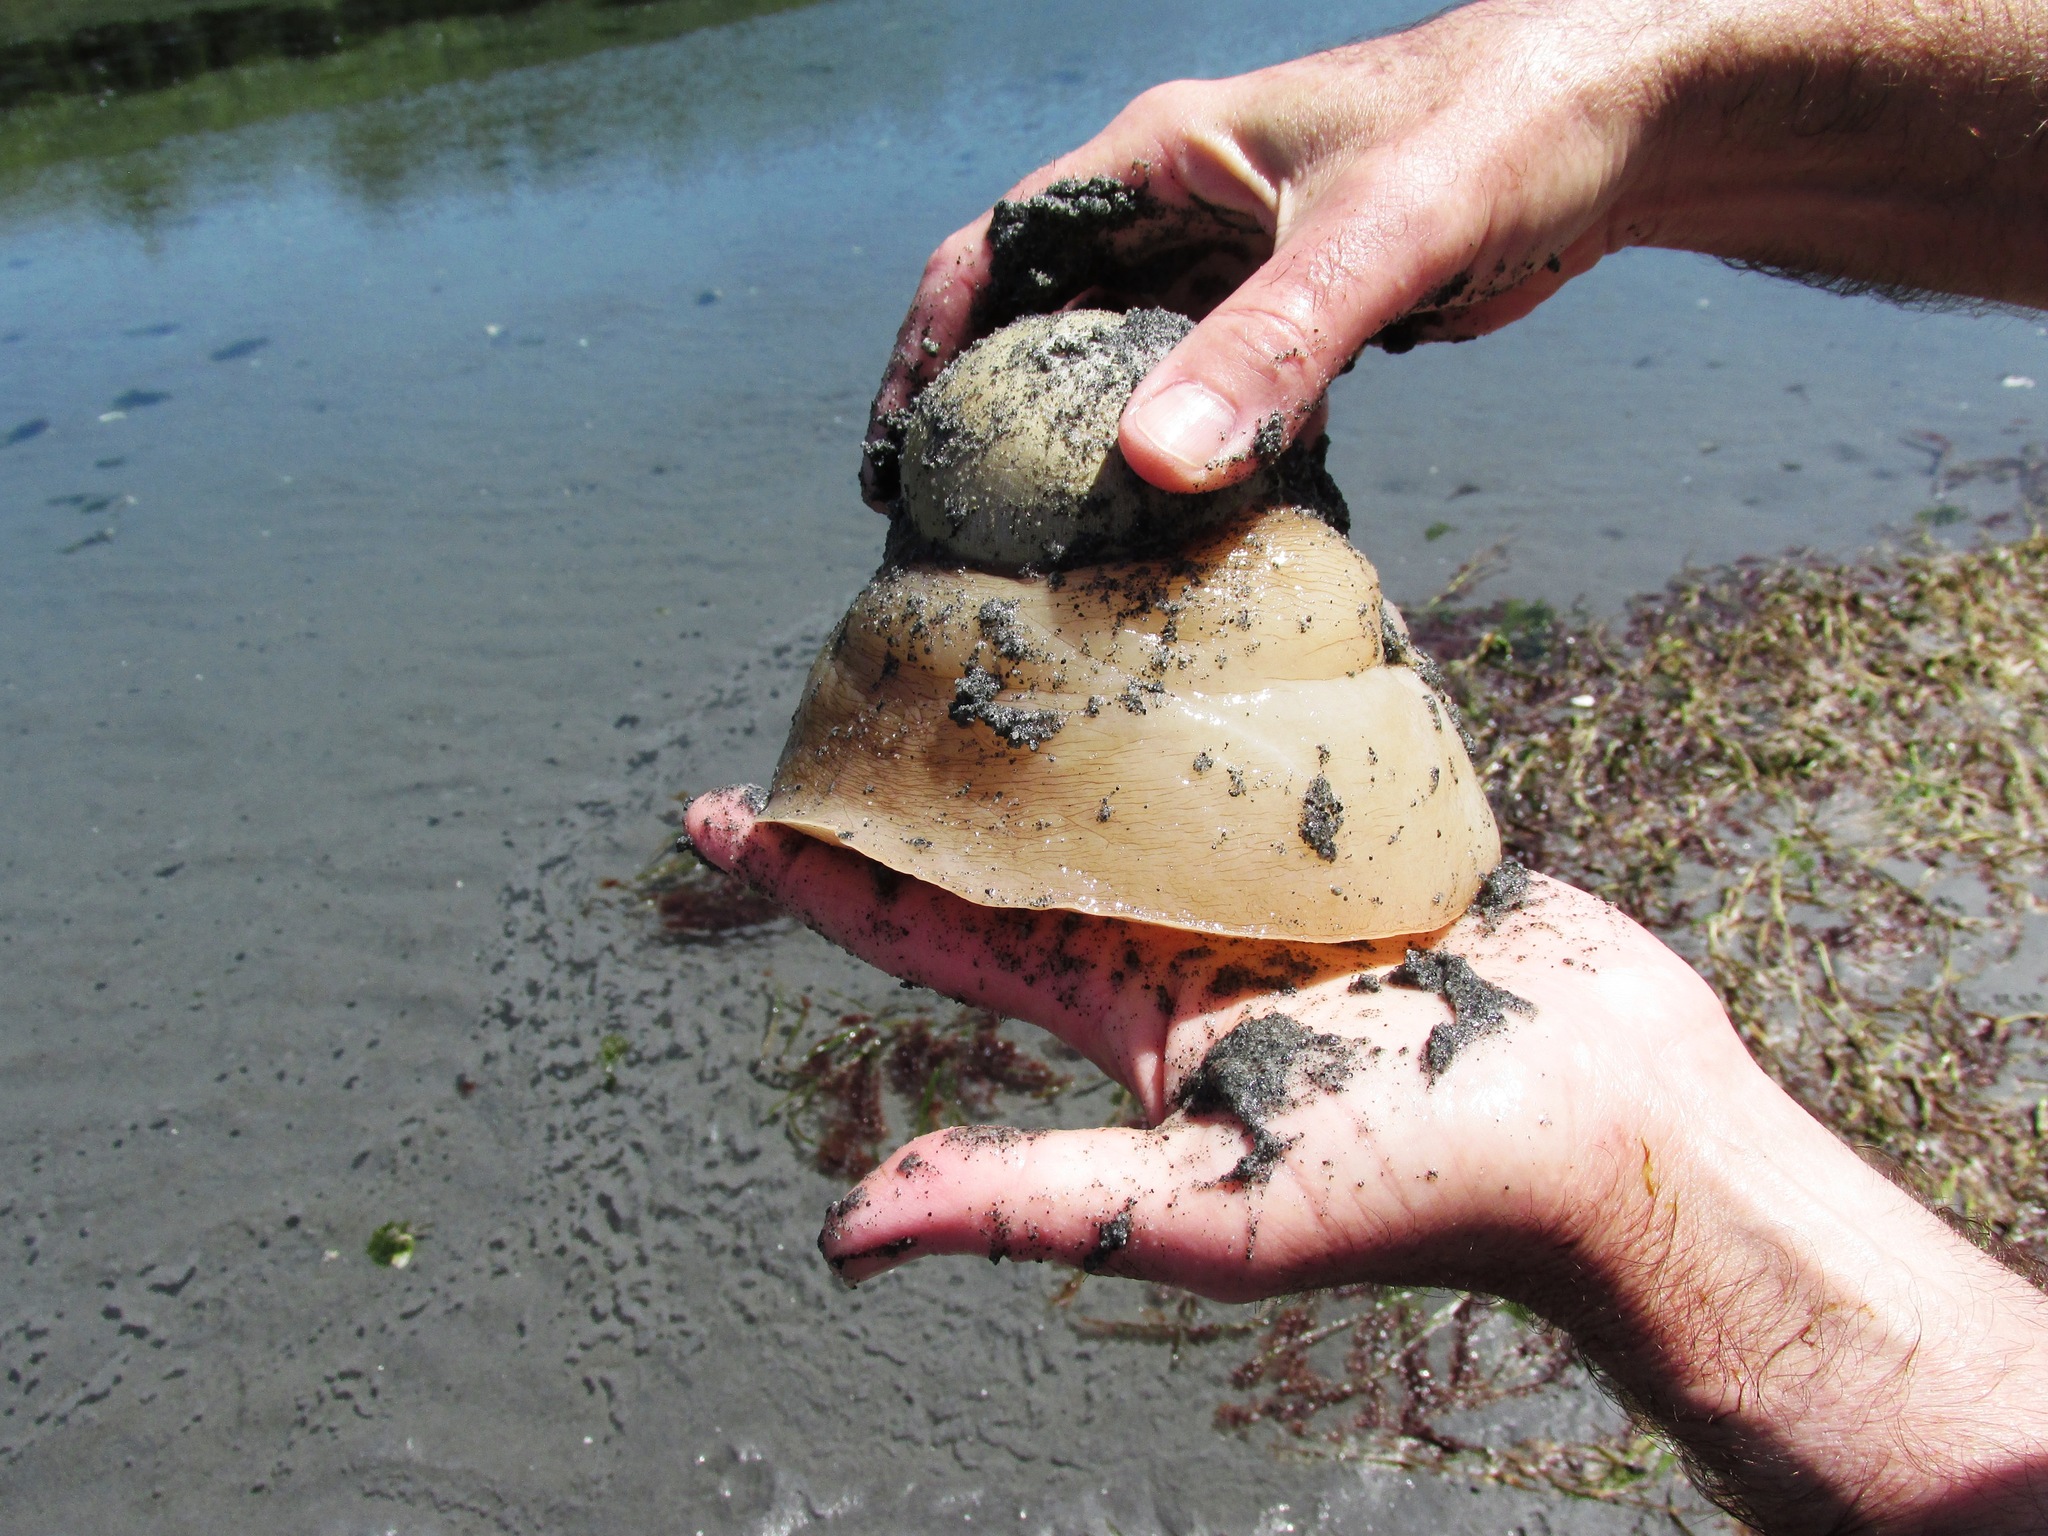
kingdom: Animalia
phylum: Mollusca
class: Gastropoda
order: Littorinimorpha
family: Naticidae
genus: Neverita
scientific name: Neverita lewisii
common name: Lewis' moonsnail
